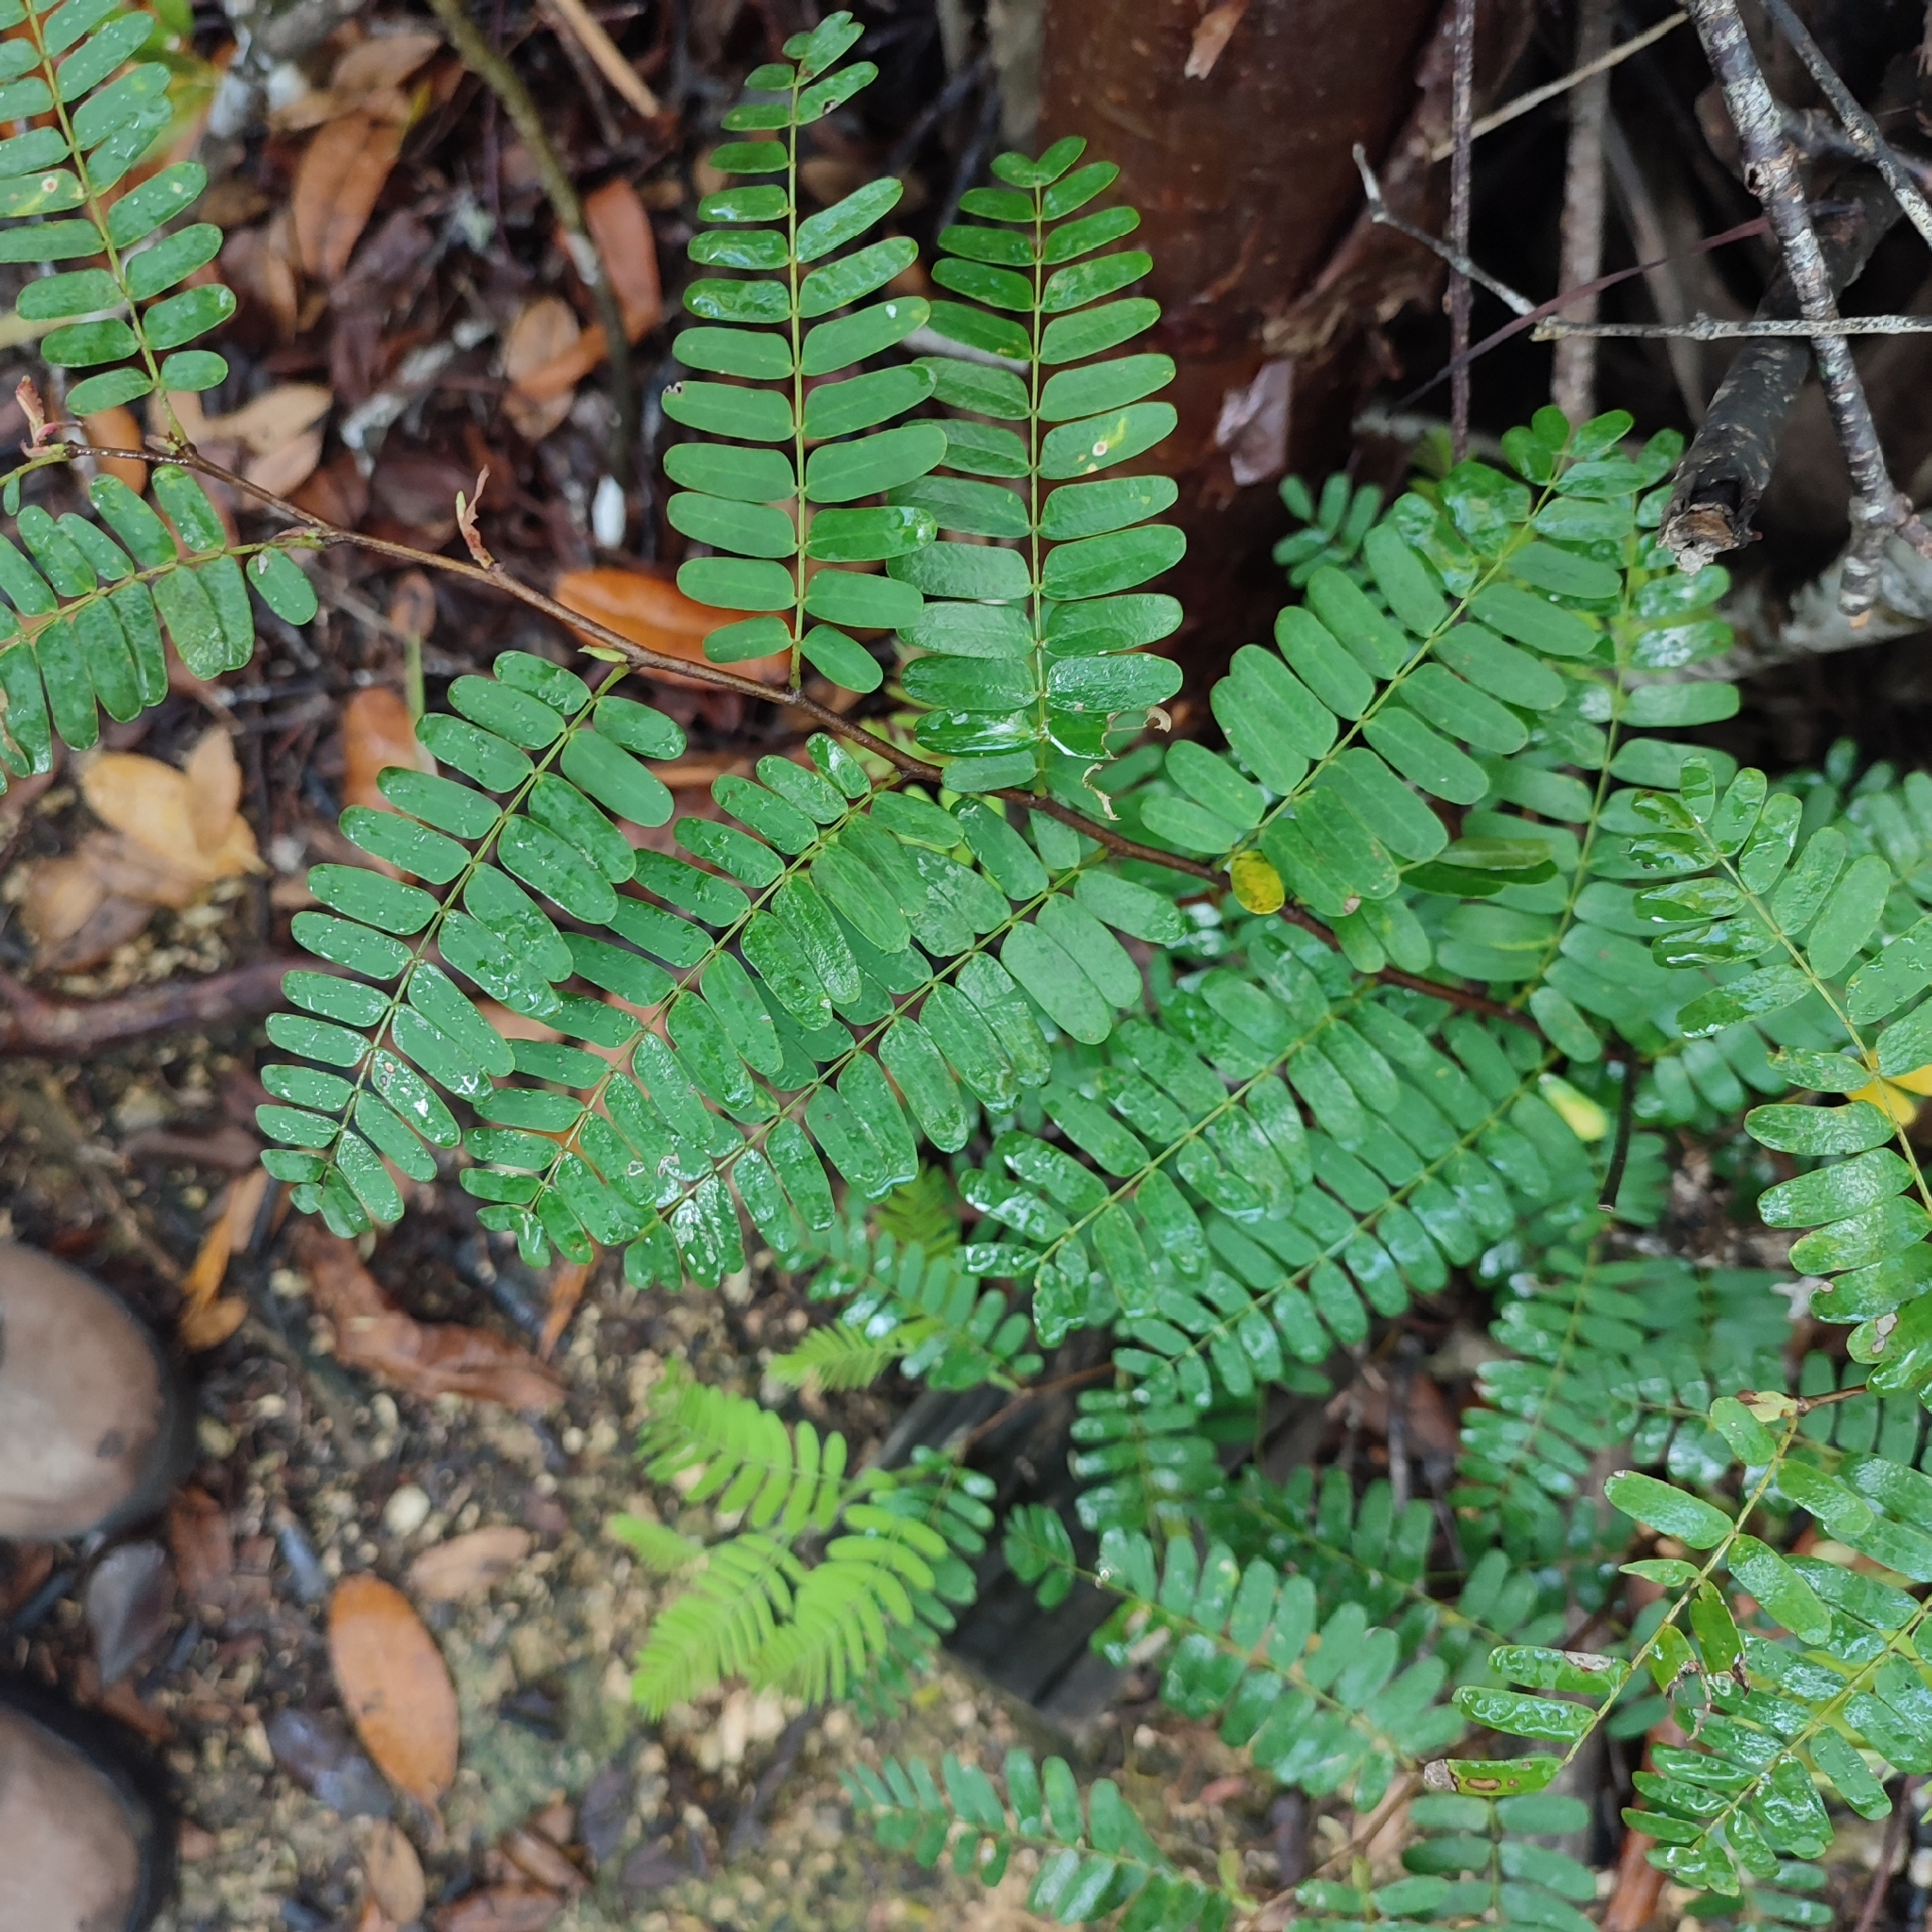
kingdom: Plantae
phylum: Tracheophyta
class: Magnoliopsida
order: Fabales
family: Fabaceae
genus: Tamarindus
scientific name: Tamarindus indica
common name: Tamarind
